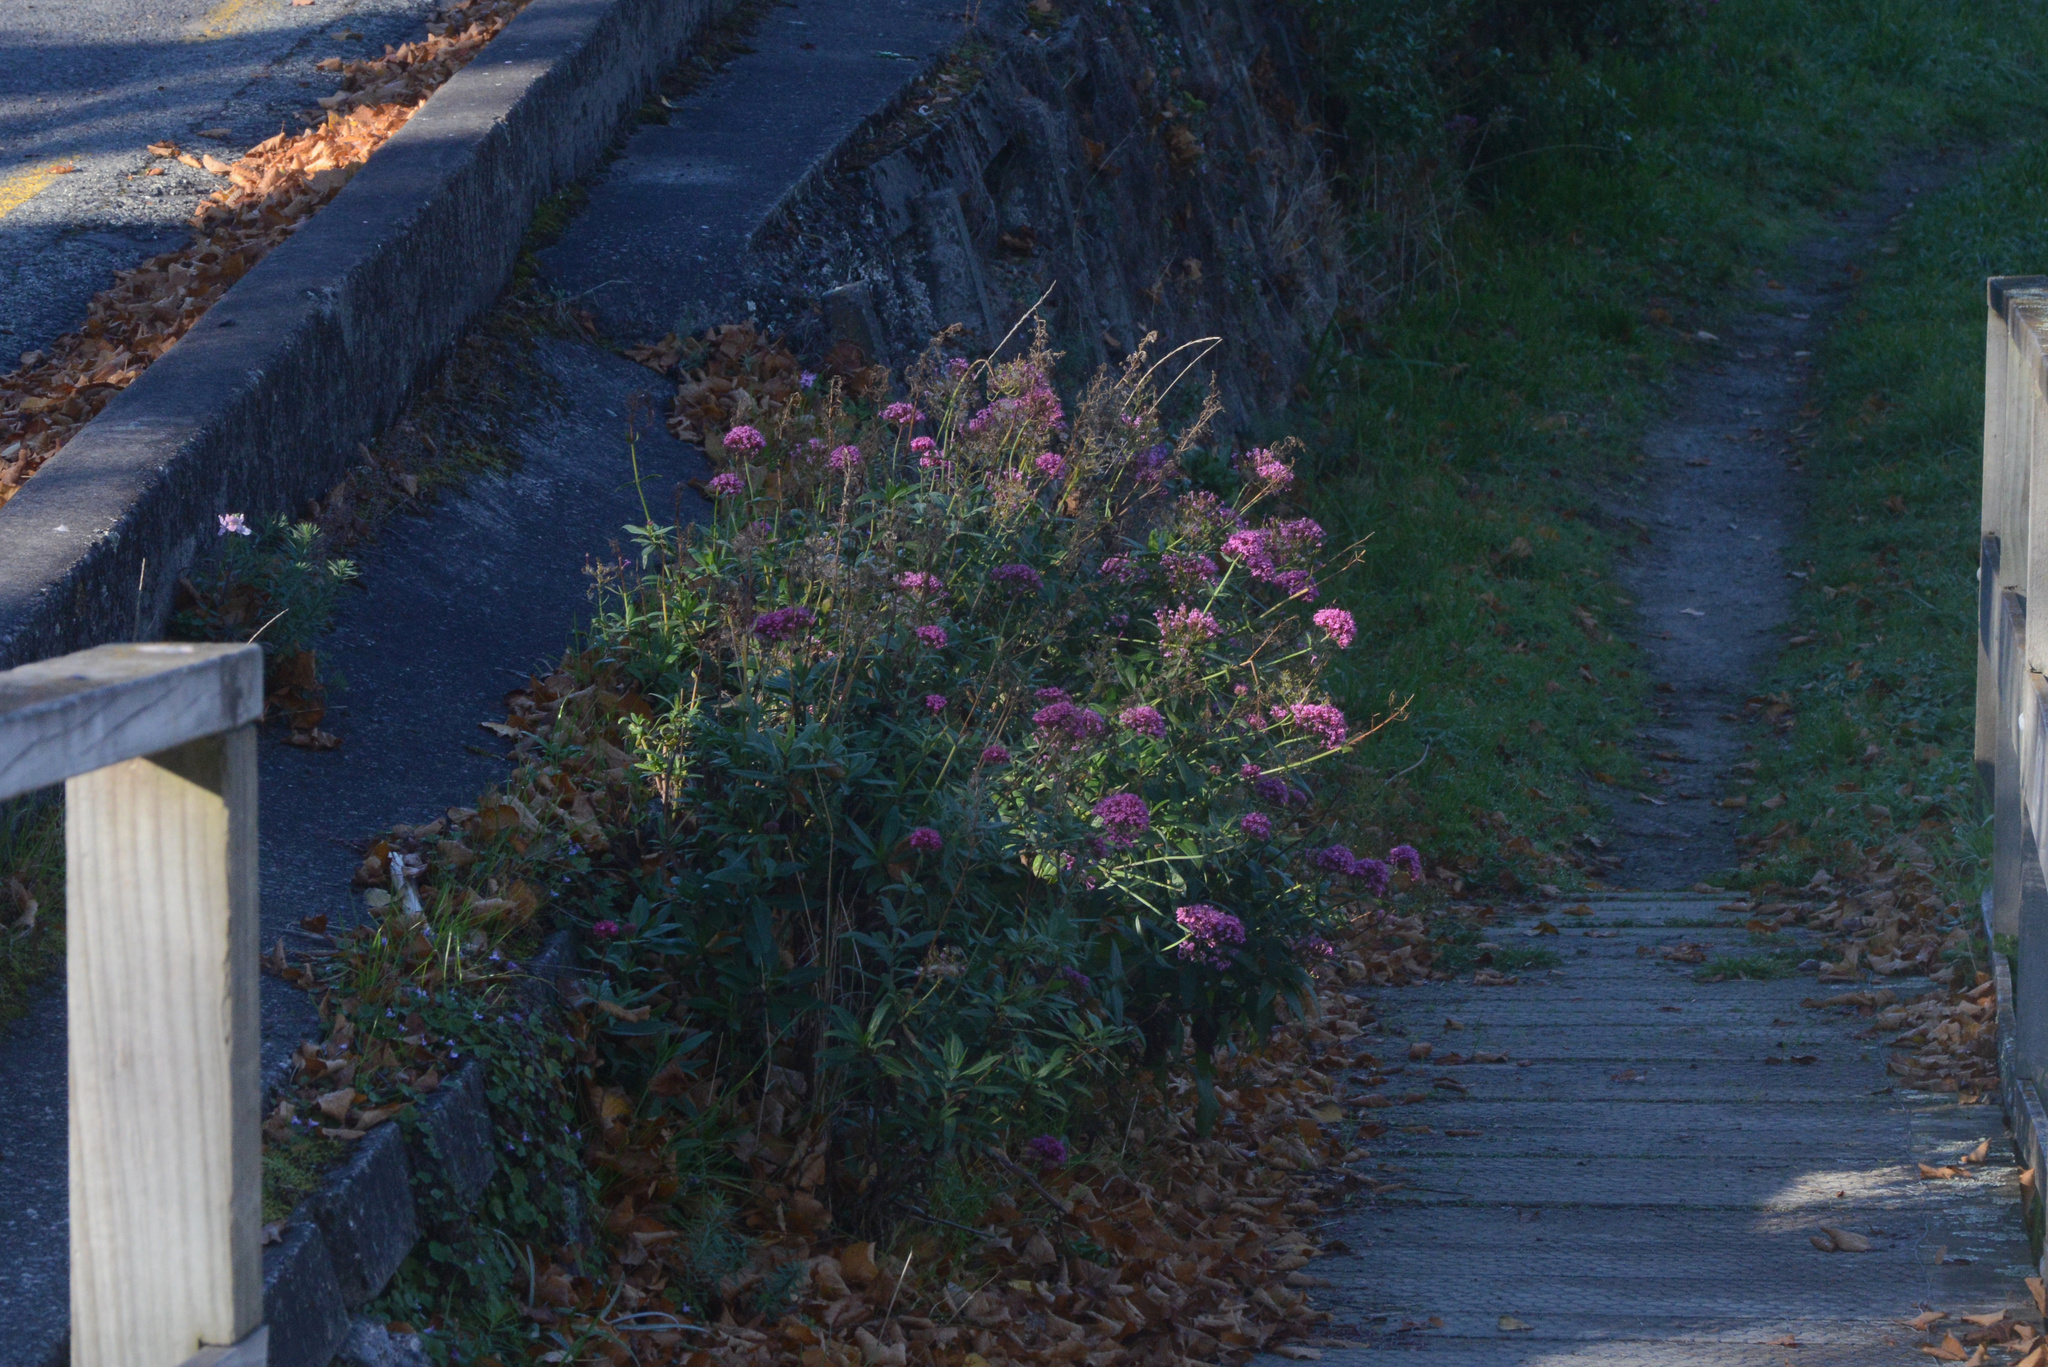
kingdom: Plantae
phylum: Tracheophyta
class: Magnoliopsida
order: Dipsacales
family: Caprifoliaceae
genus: Centranthus
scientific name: Centranthus ruber
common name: Red valerian
